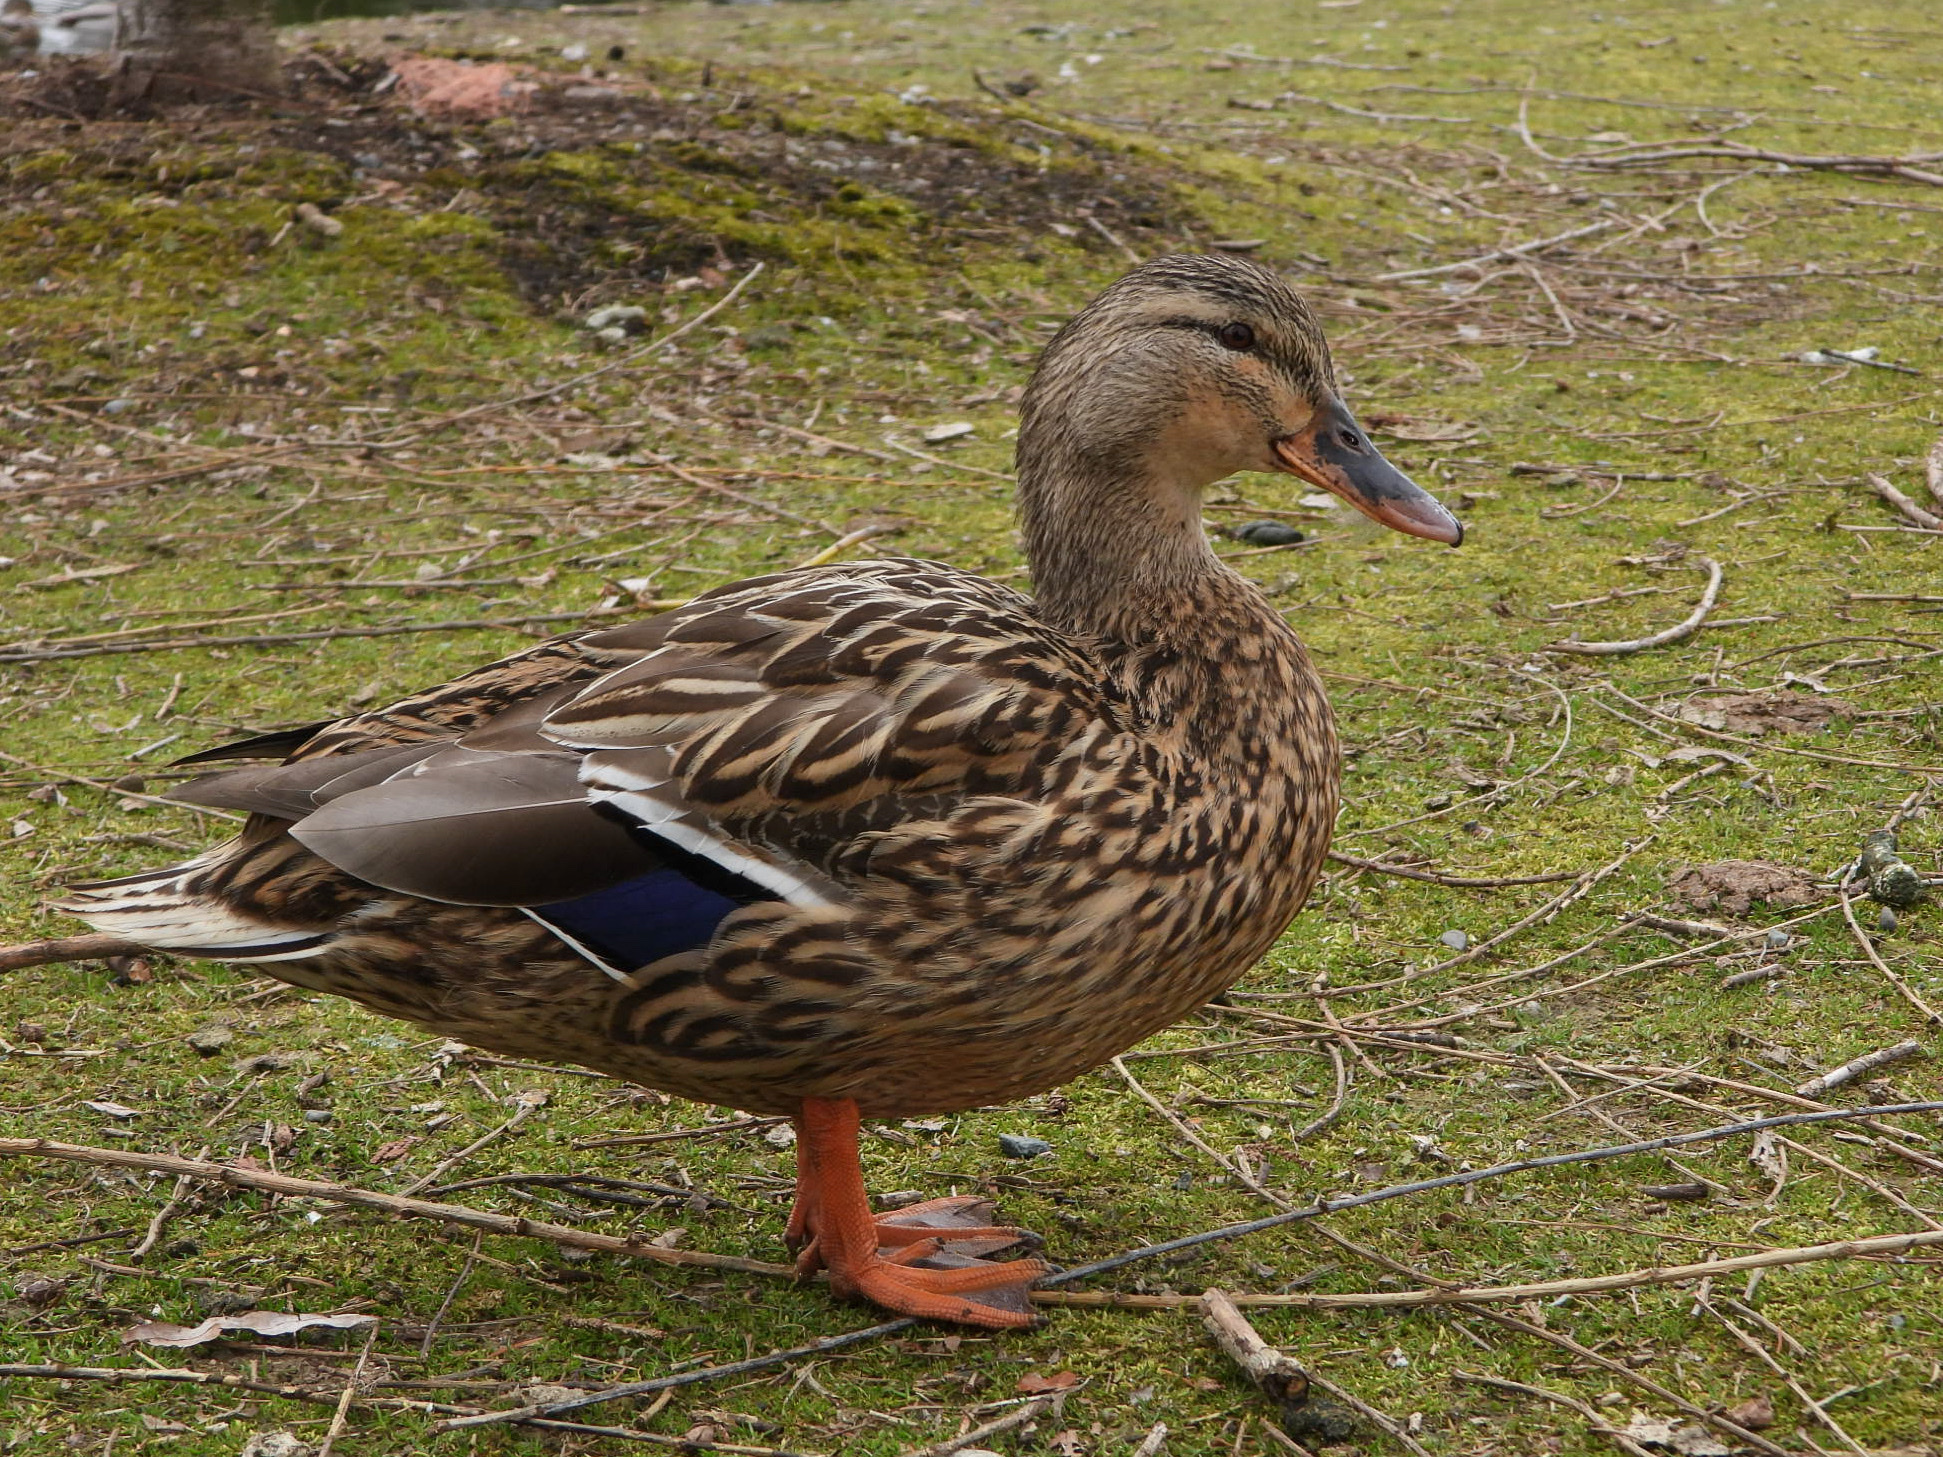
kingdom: Animalia
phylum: Chordata
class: Aves
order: Anseriformes
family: Anatidae
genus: Anas
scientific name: Anas platyrhynchos
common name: Mallard
